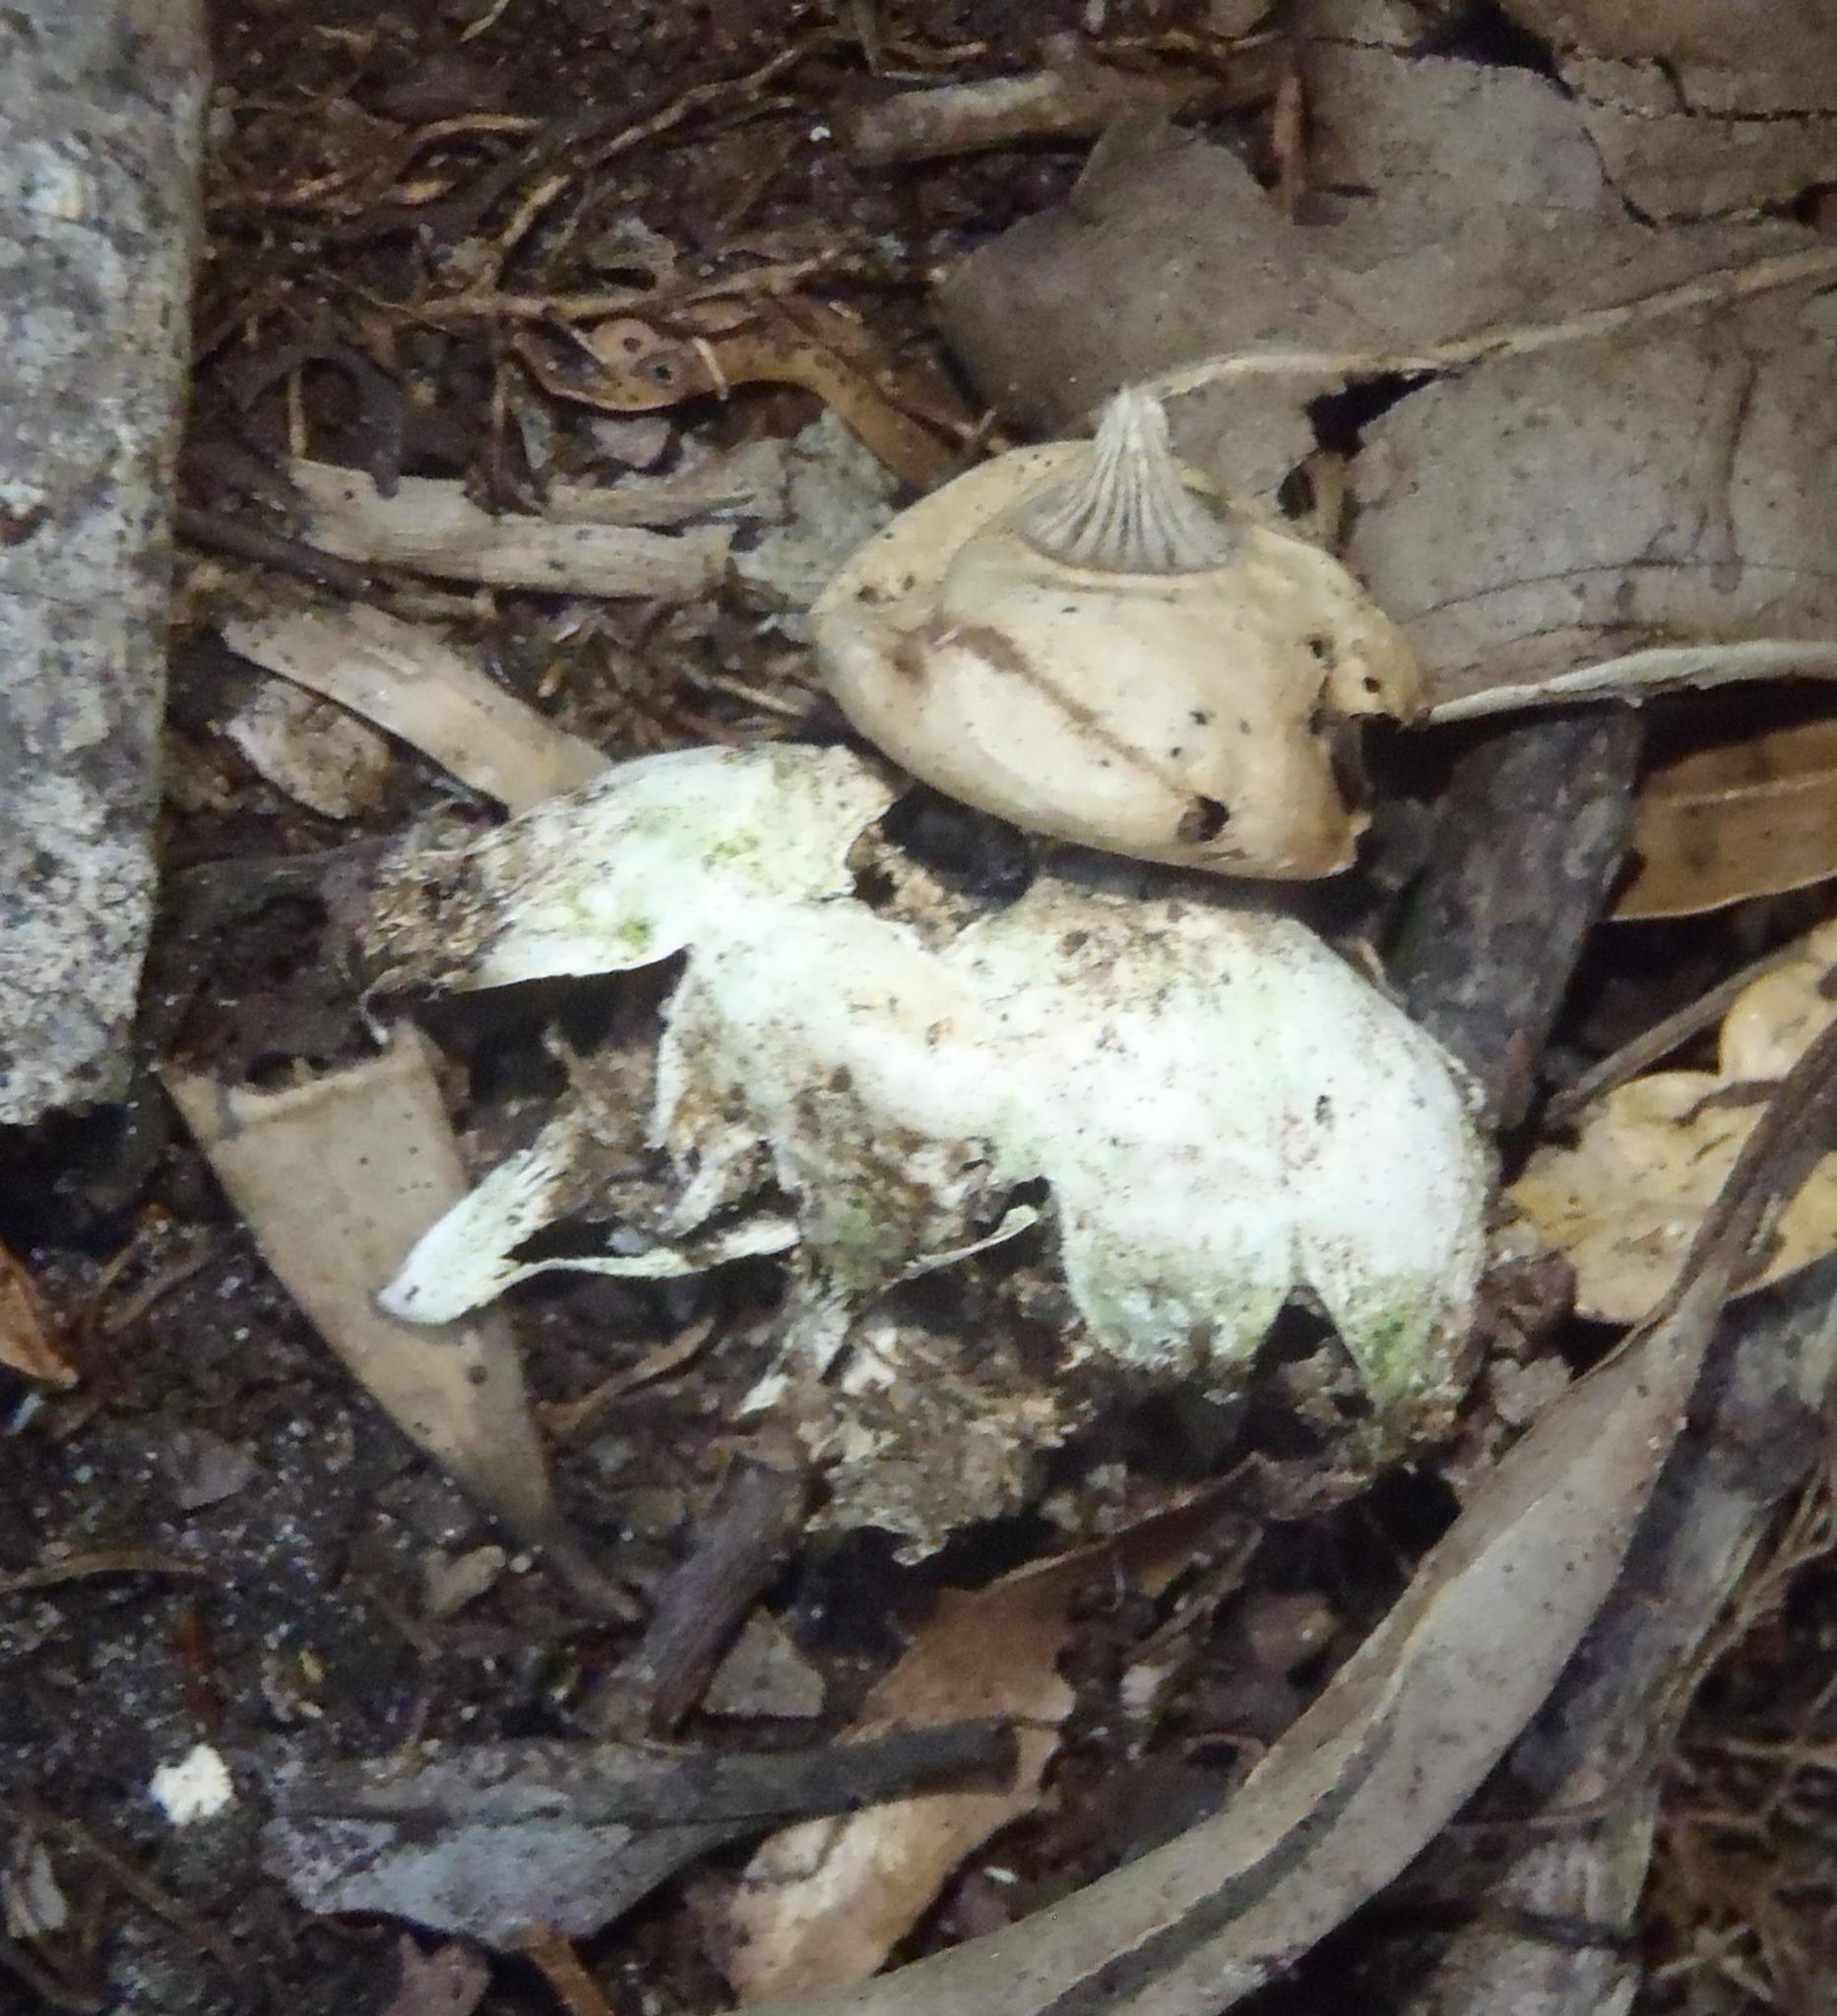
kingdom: Fungi
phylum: Basidiomycota
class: Agaricomycetes
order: Geastrales
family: Geastraceae
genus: Geastrum
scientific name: Geastrum pectinatum
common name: Beaked earthstar
